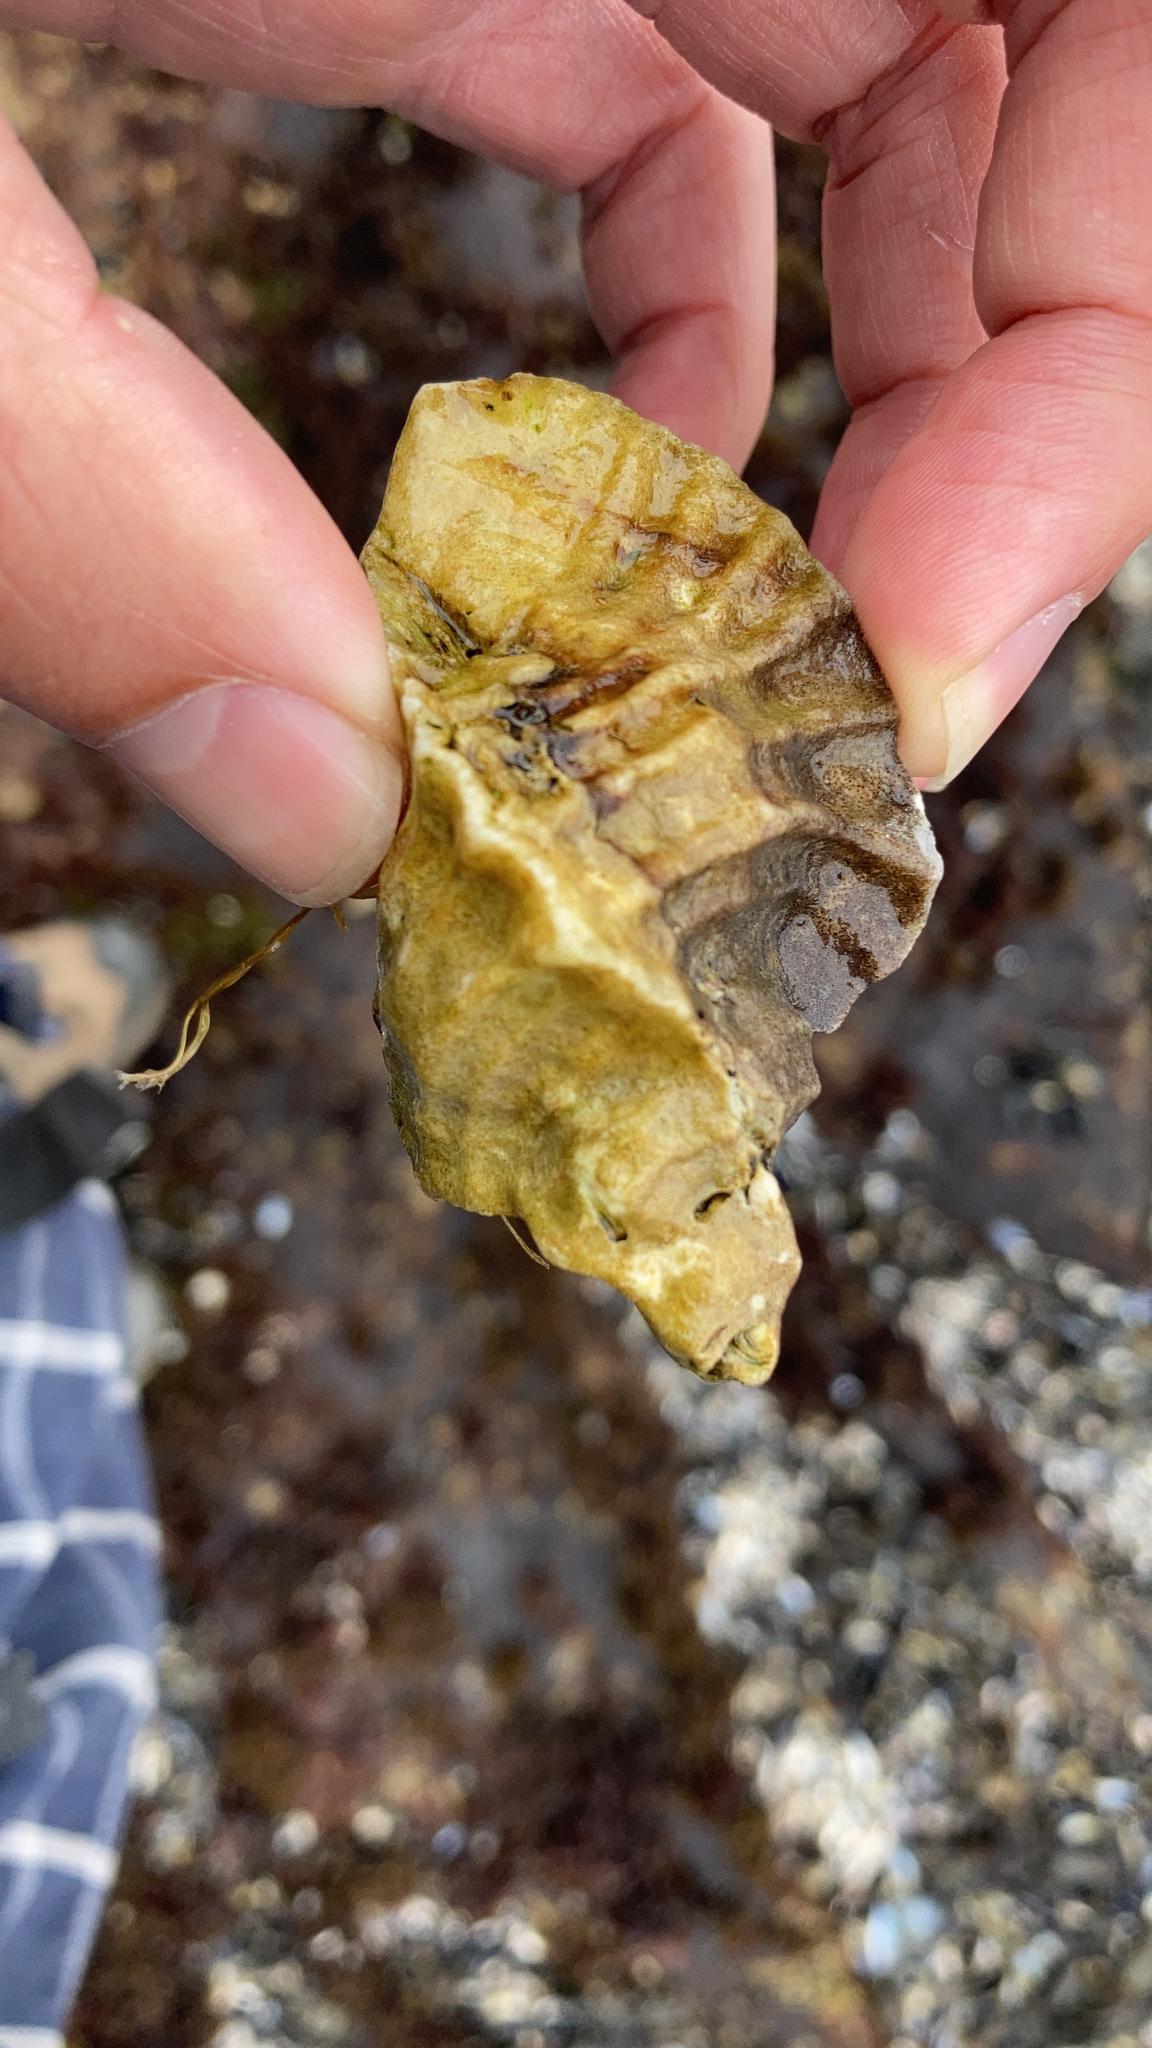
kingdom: Animalia
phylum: Mollusca
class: Gastropoda
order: Neogastropoda
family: Muricidae
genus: Ceratostoma
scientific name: Ceratostoma foliatum
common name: Foliate thorn purpura
